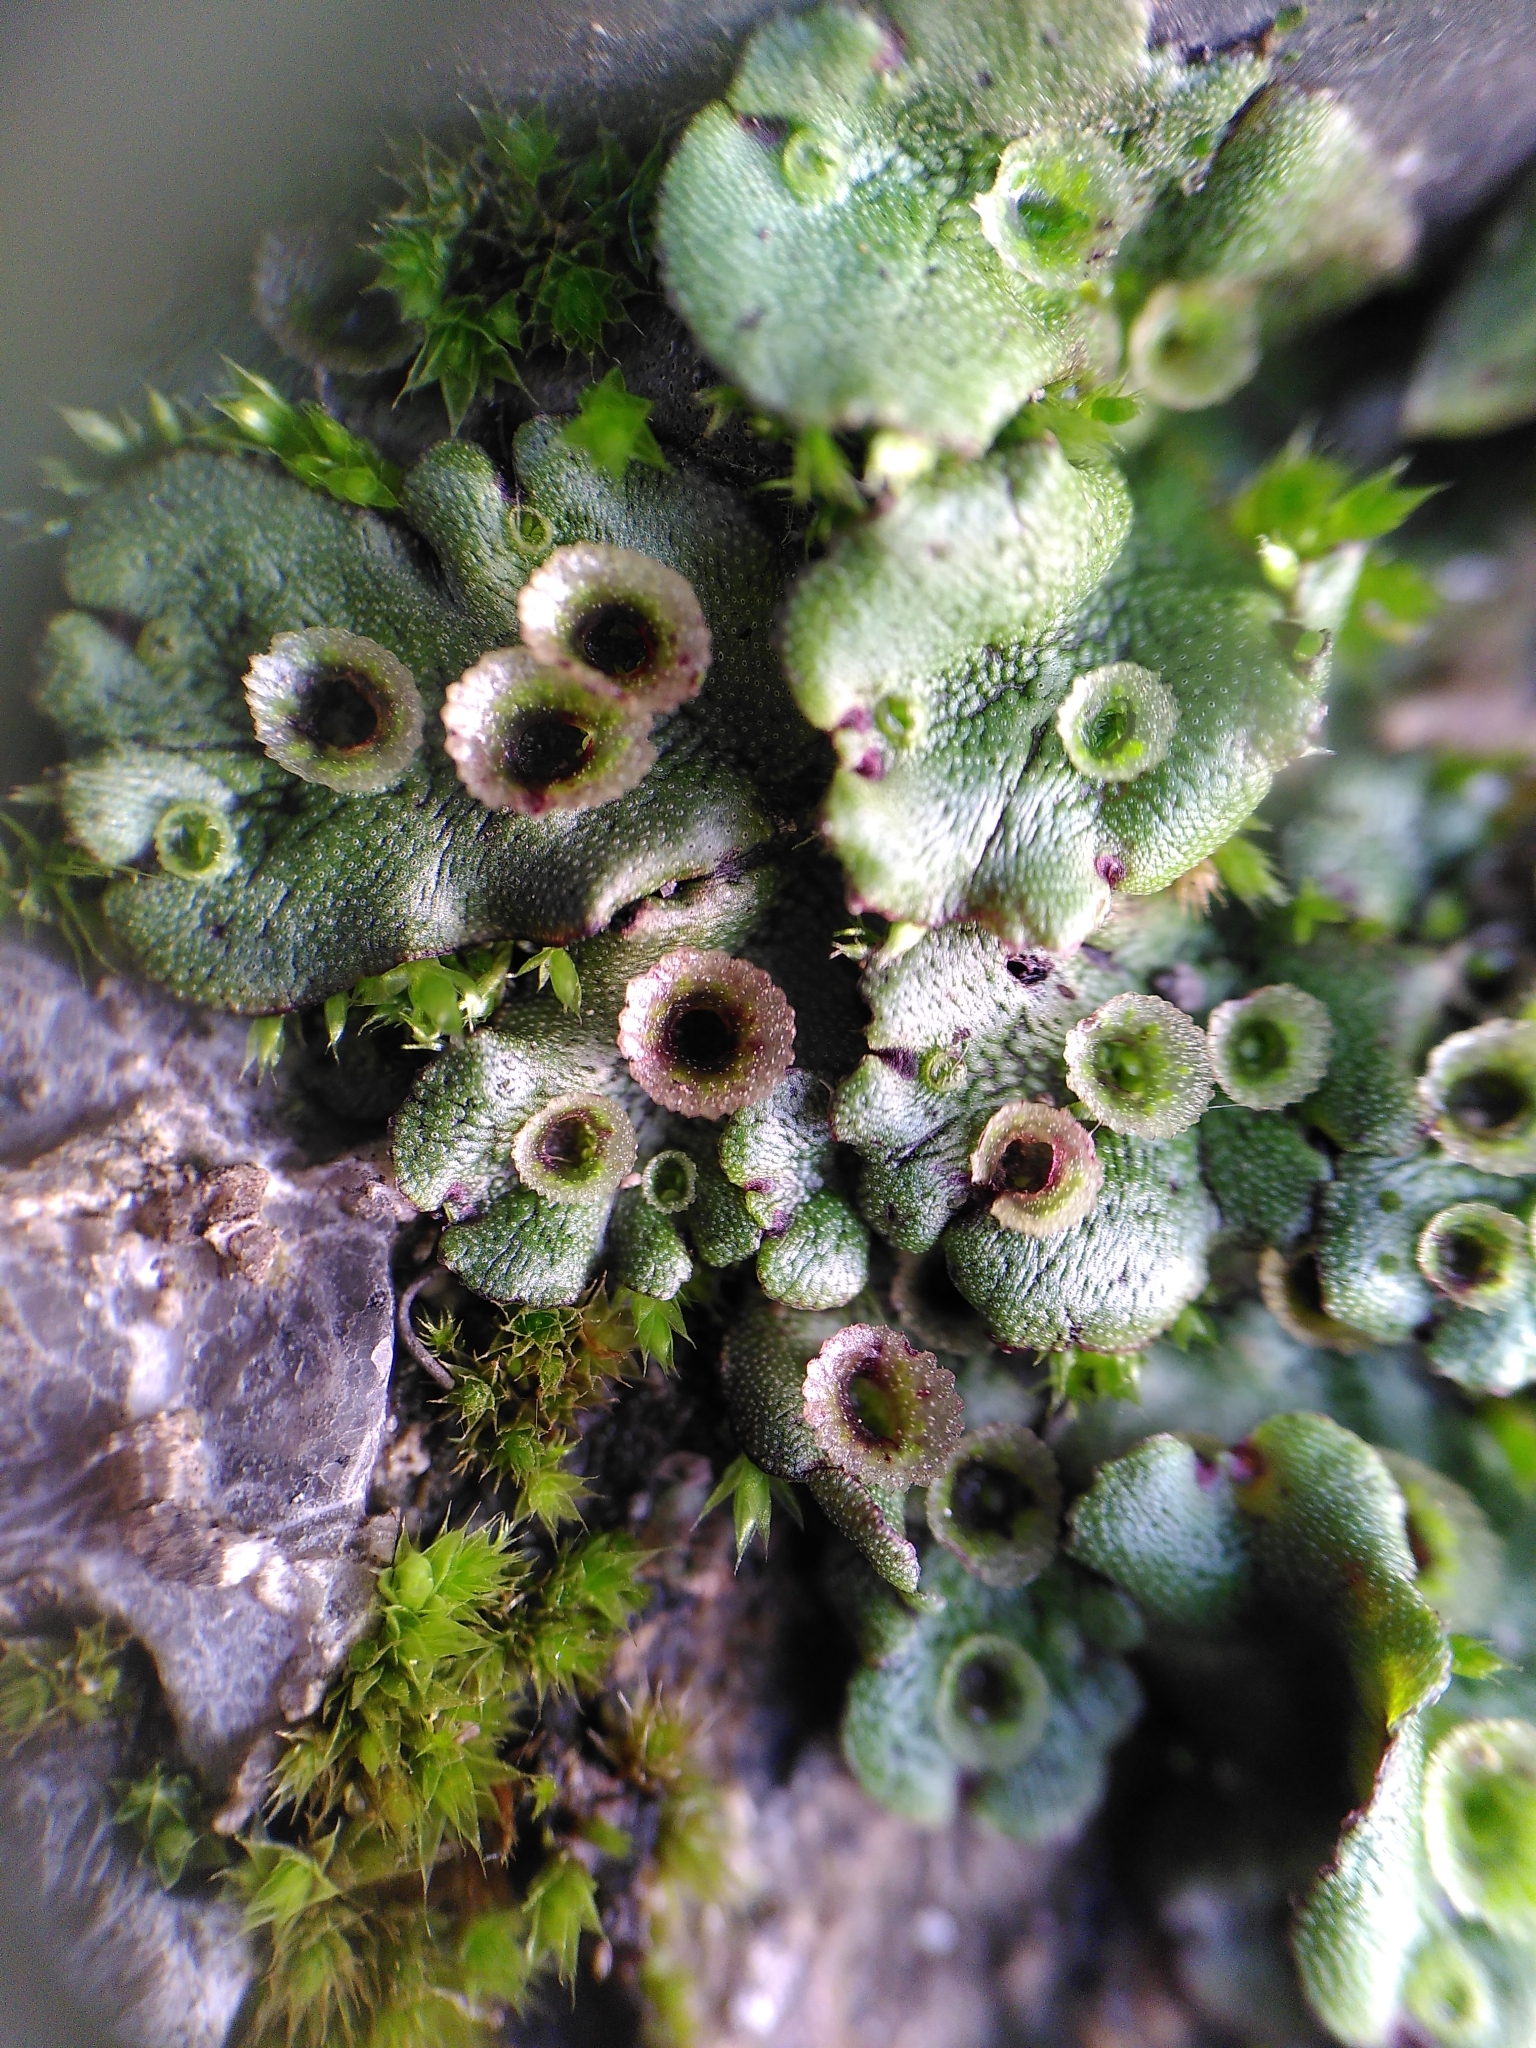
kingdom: Plantae
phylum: Marchantiophyta
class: Marchantiopsida
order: Marchantiales
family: Marchantiaceae
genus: Marchantia
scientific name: Marchantia polymorpha
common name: Common liverwort
